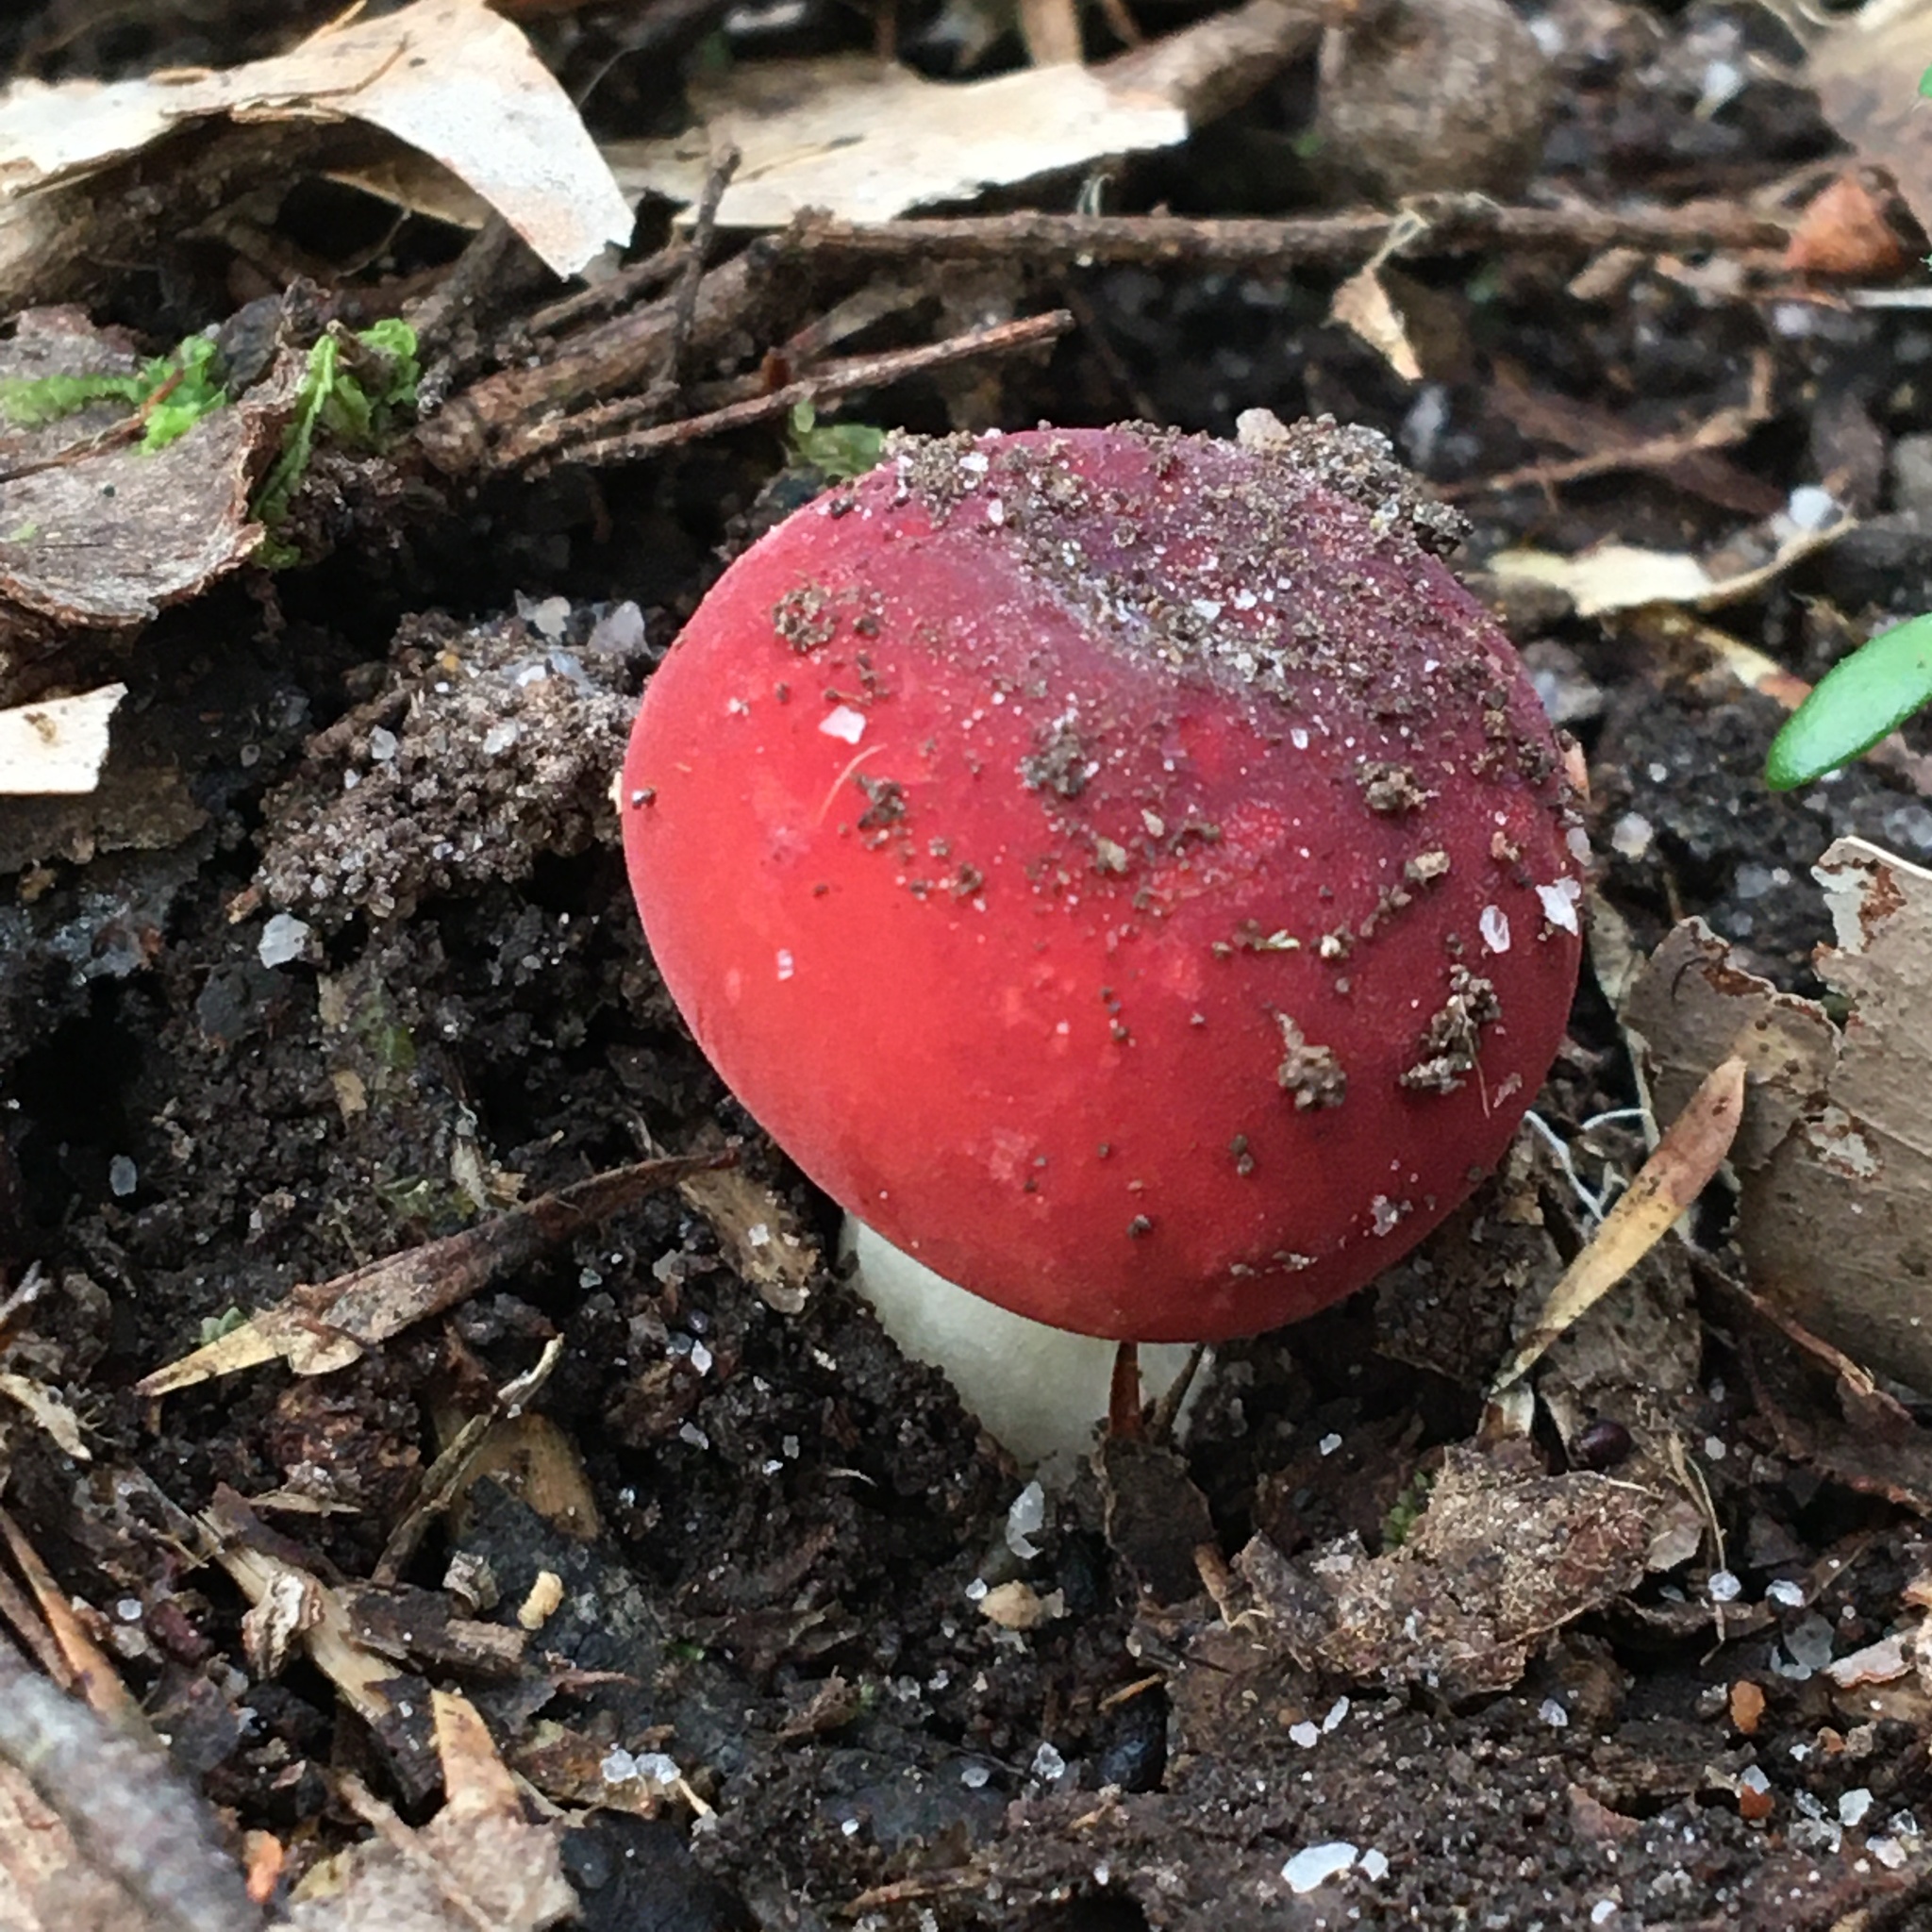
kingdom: Fungi
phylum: Basidiomycota
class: Agaricomycetes
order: Russulales
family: Russulaceae
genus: Russula
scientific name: Russula persanguinea
